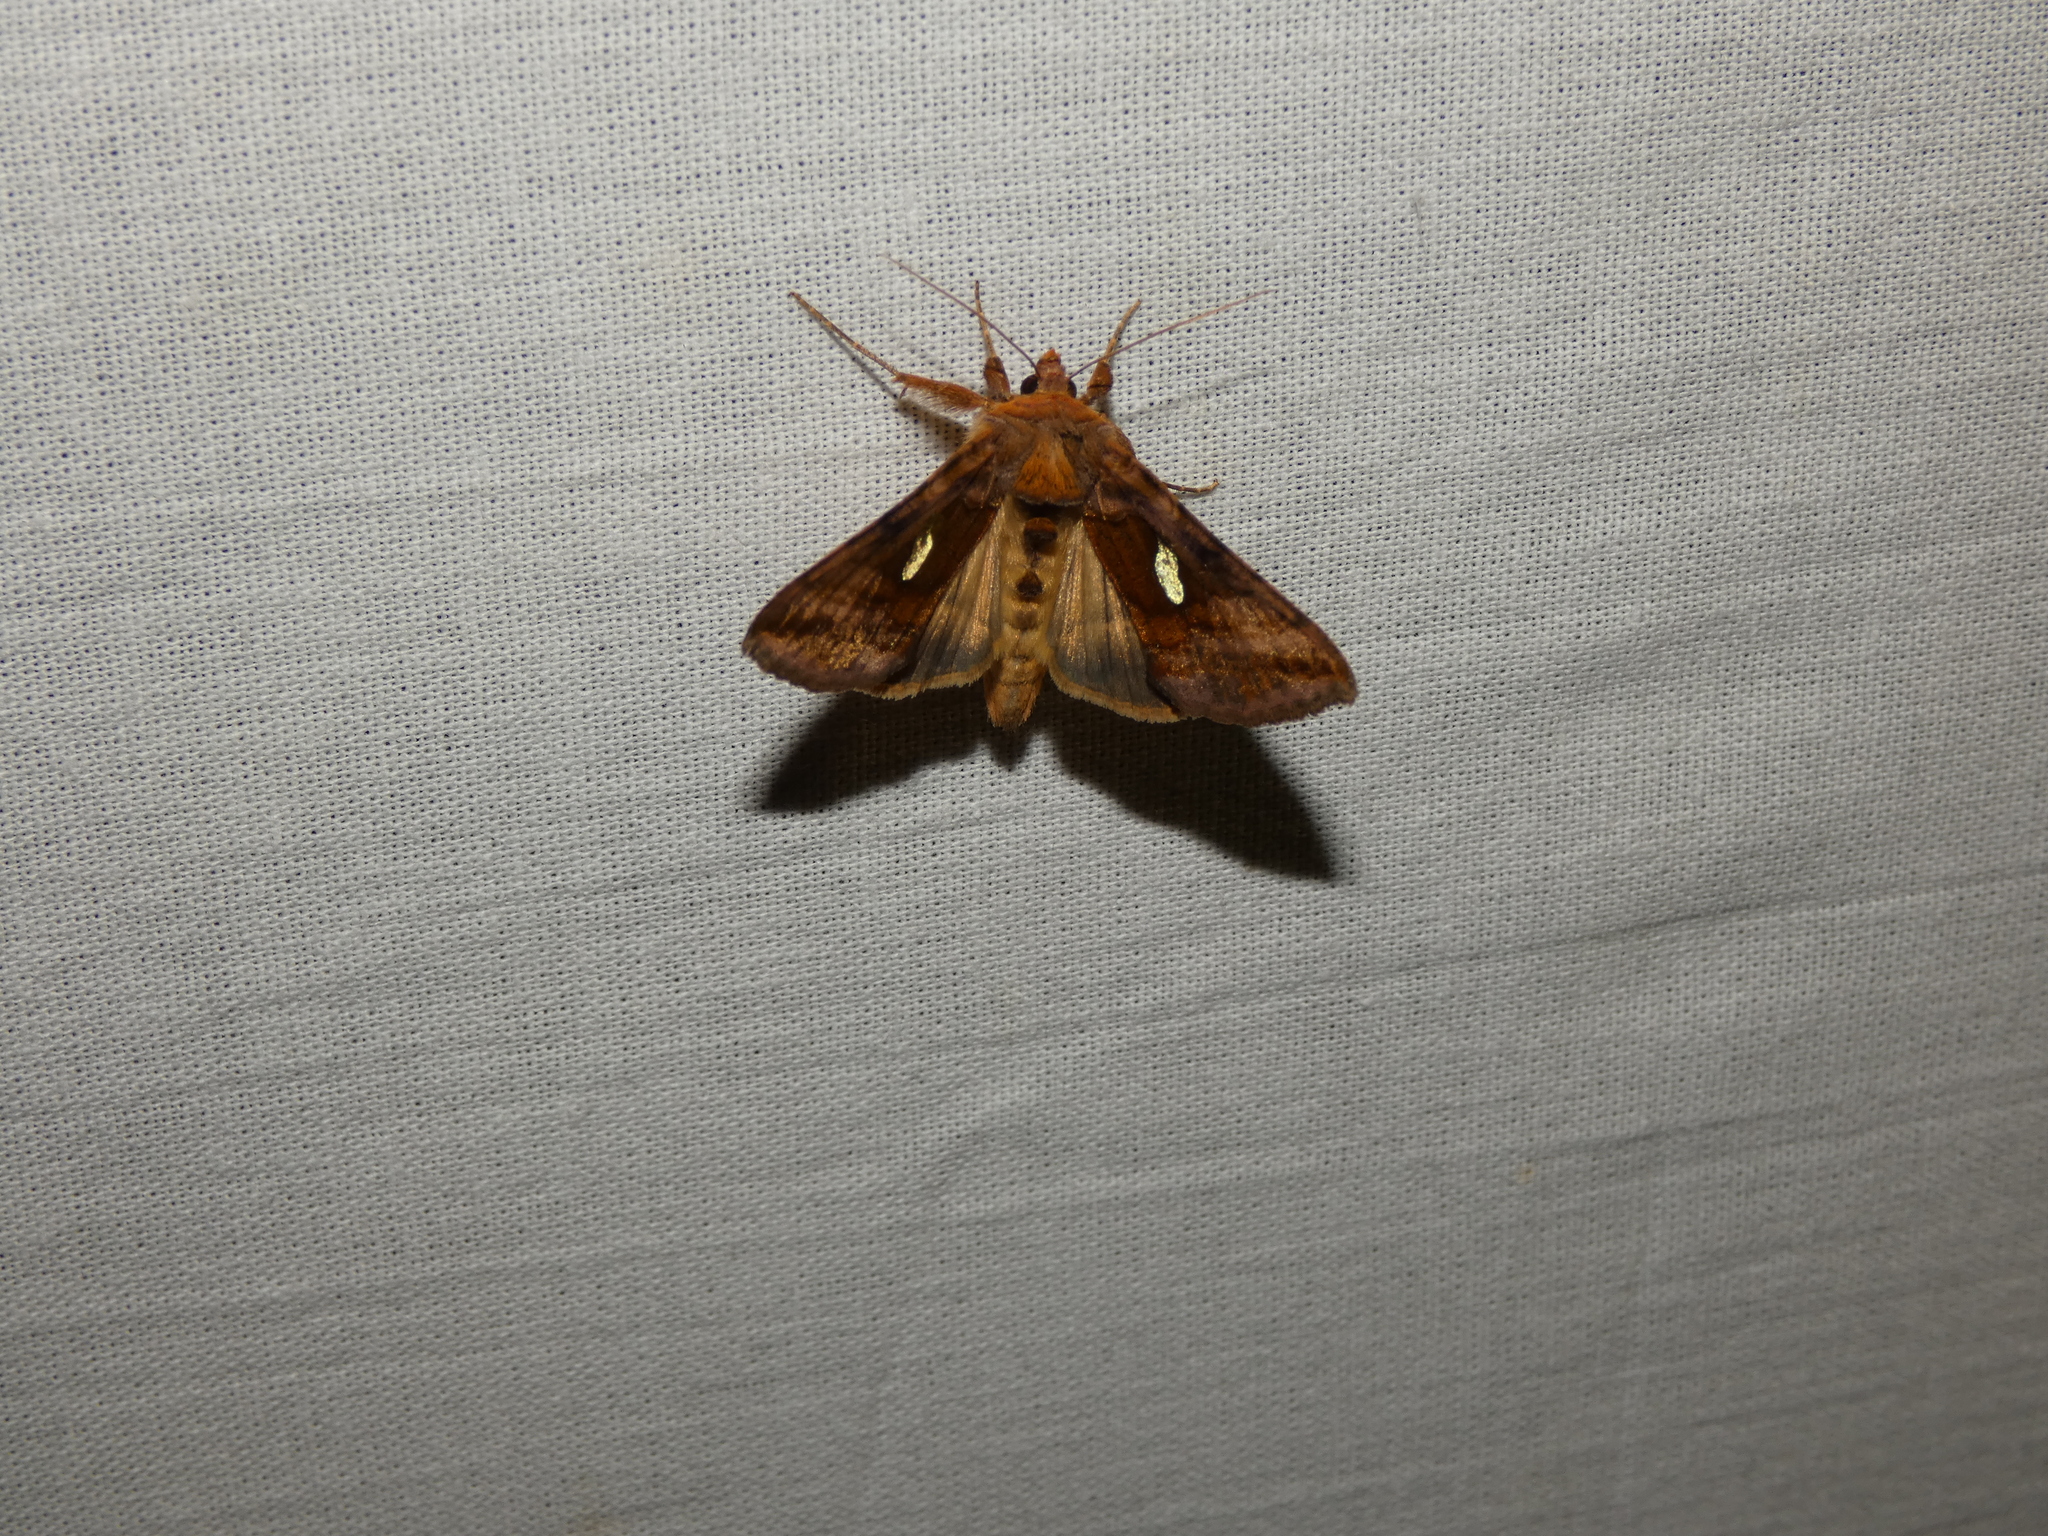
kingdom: Animalia
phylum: Arthropoda
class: Insecta
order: Lepidoptera
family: Noctuidae
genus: Autographa
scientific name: Autographa excelsa
